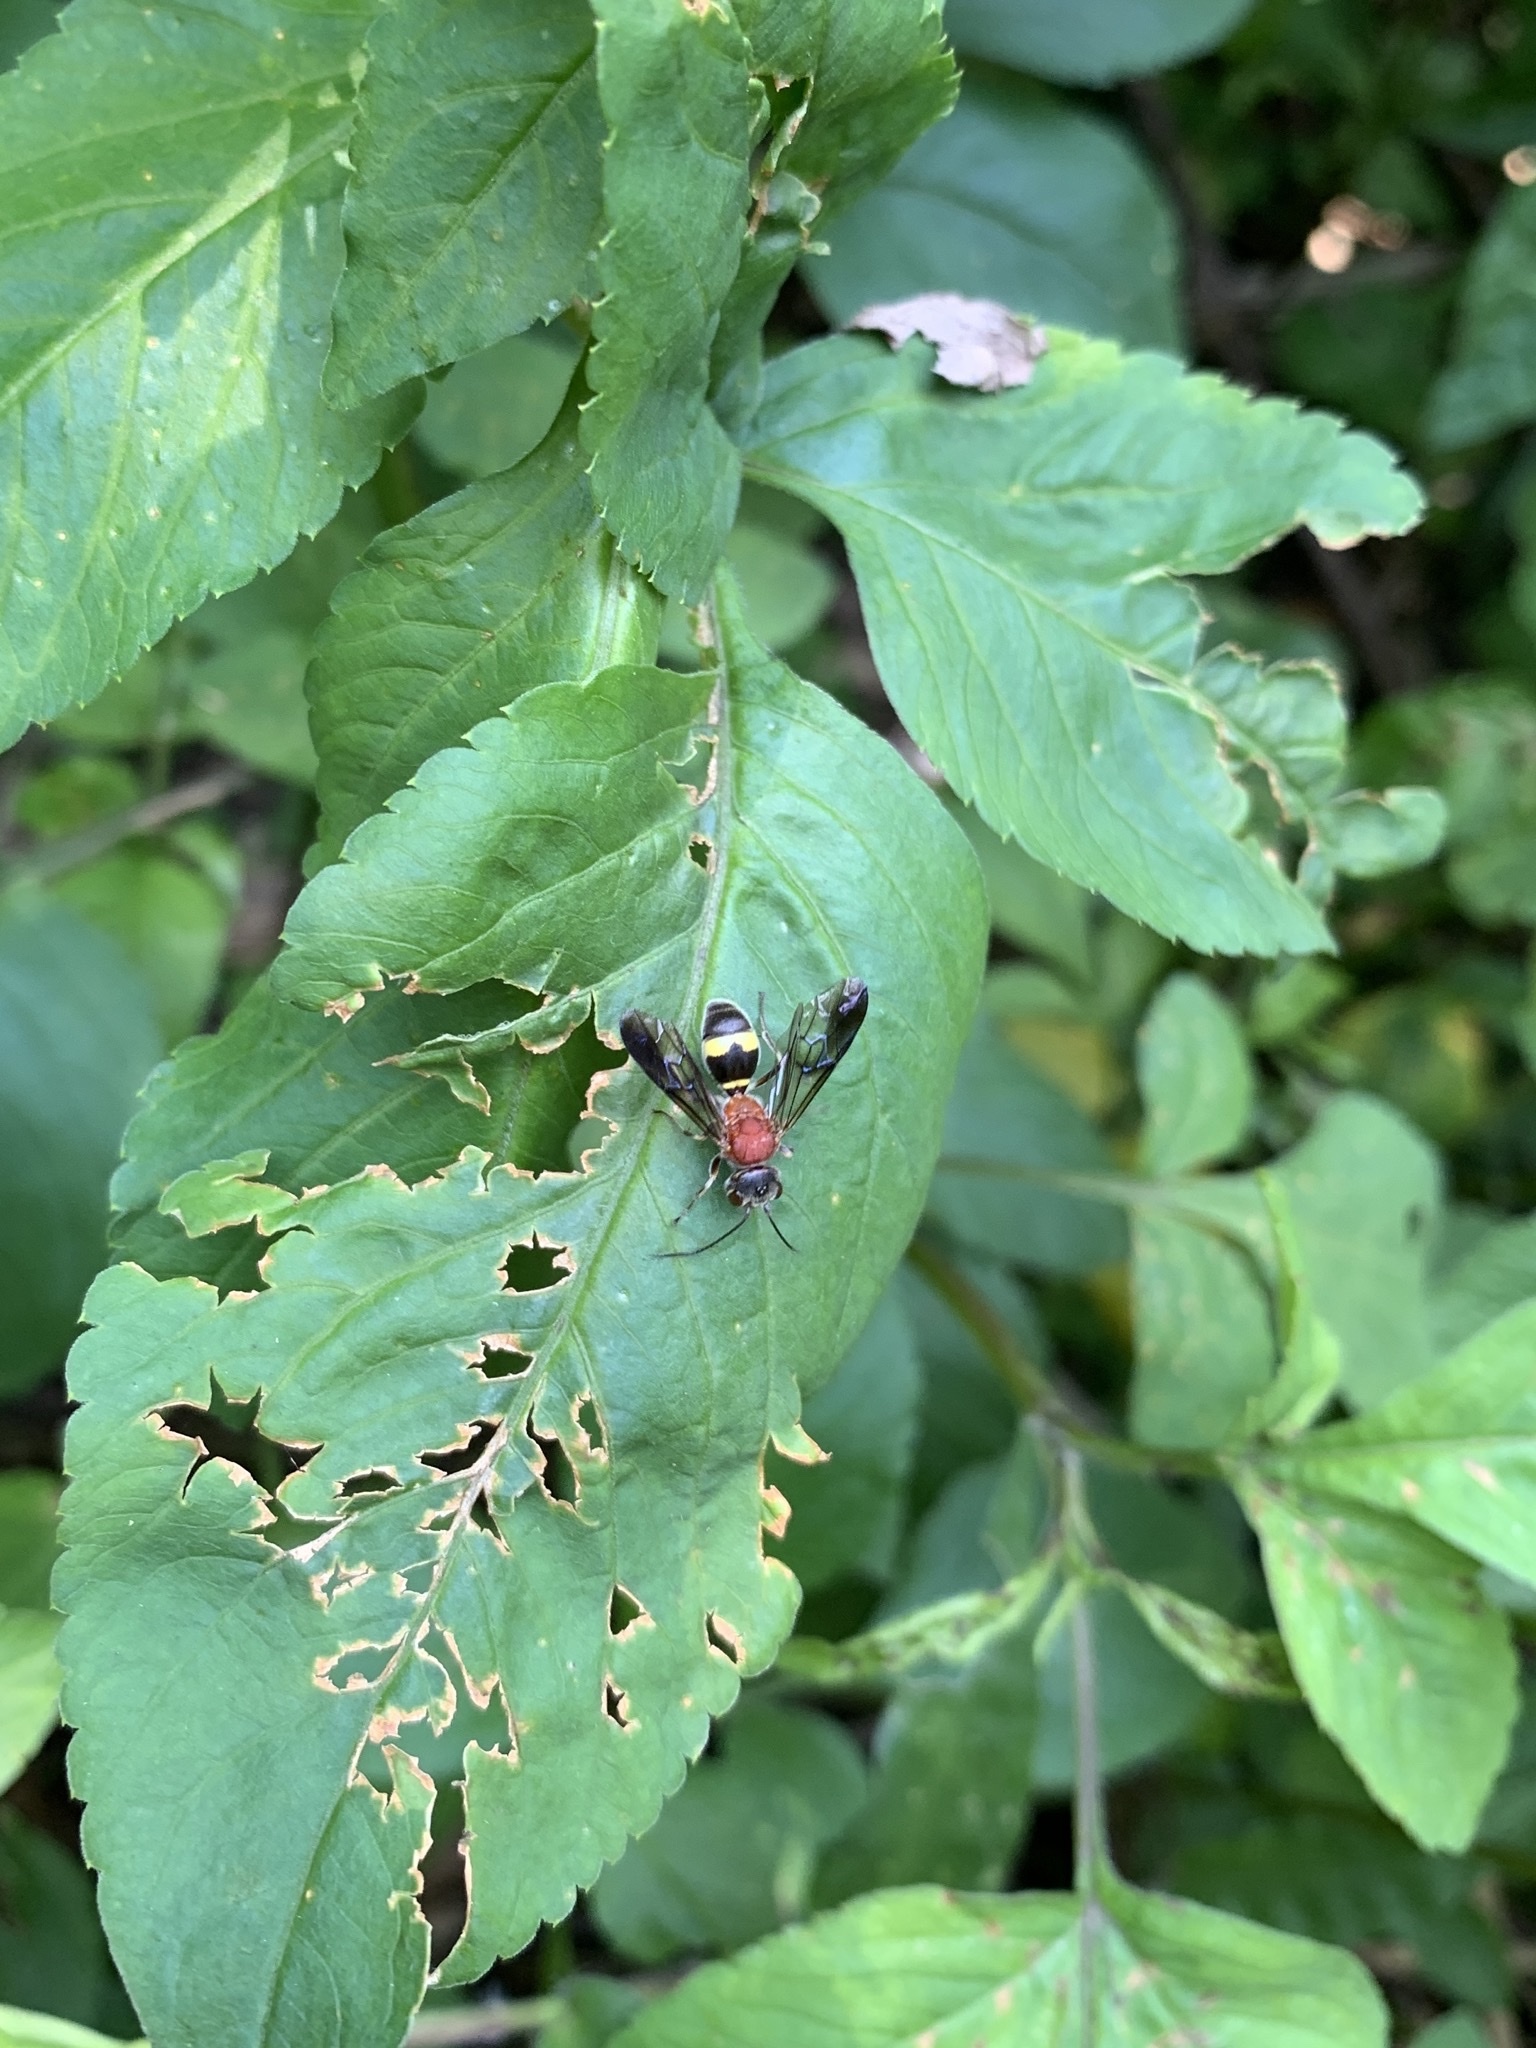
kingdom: Animalia
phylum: Arthropoda
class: Insecta
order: Hymenoptera
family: Trigonalidae
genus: Taeniogonalos
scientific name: Taeniogonalos fasciata
